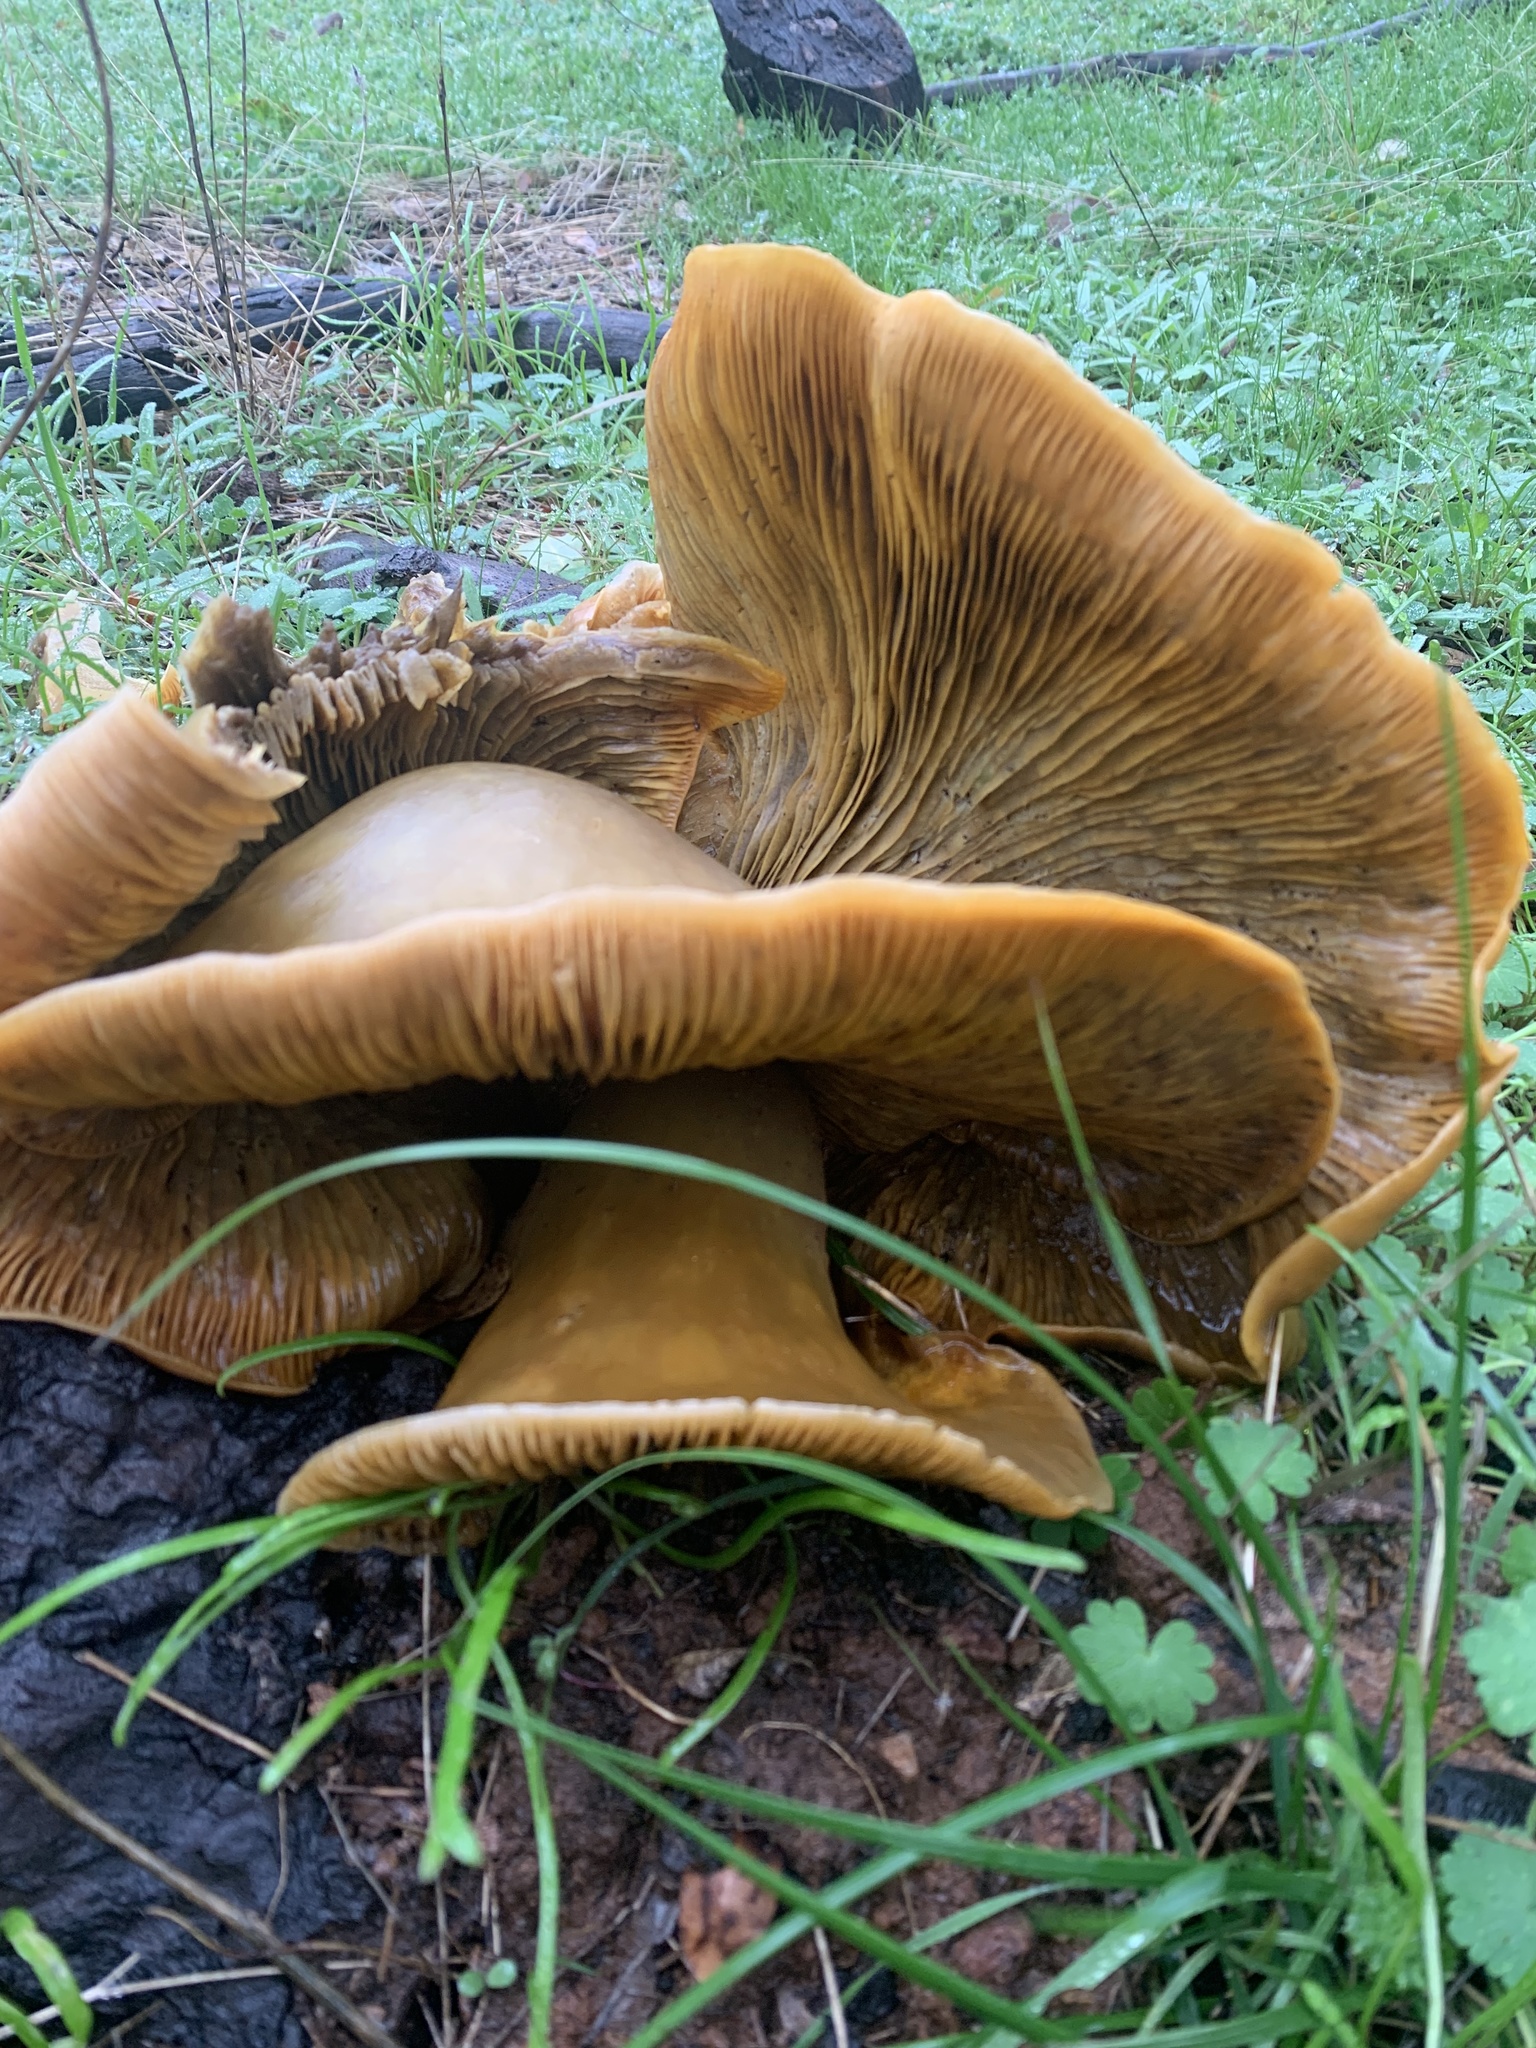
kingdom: Fungi
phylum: Basidiomycota
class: Agaricomycetes
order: Agaricales
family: Omphalotaceae
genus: Omphalotus
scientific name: Omphalotus olivascens
